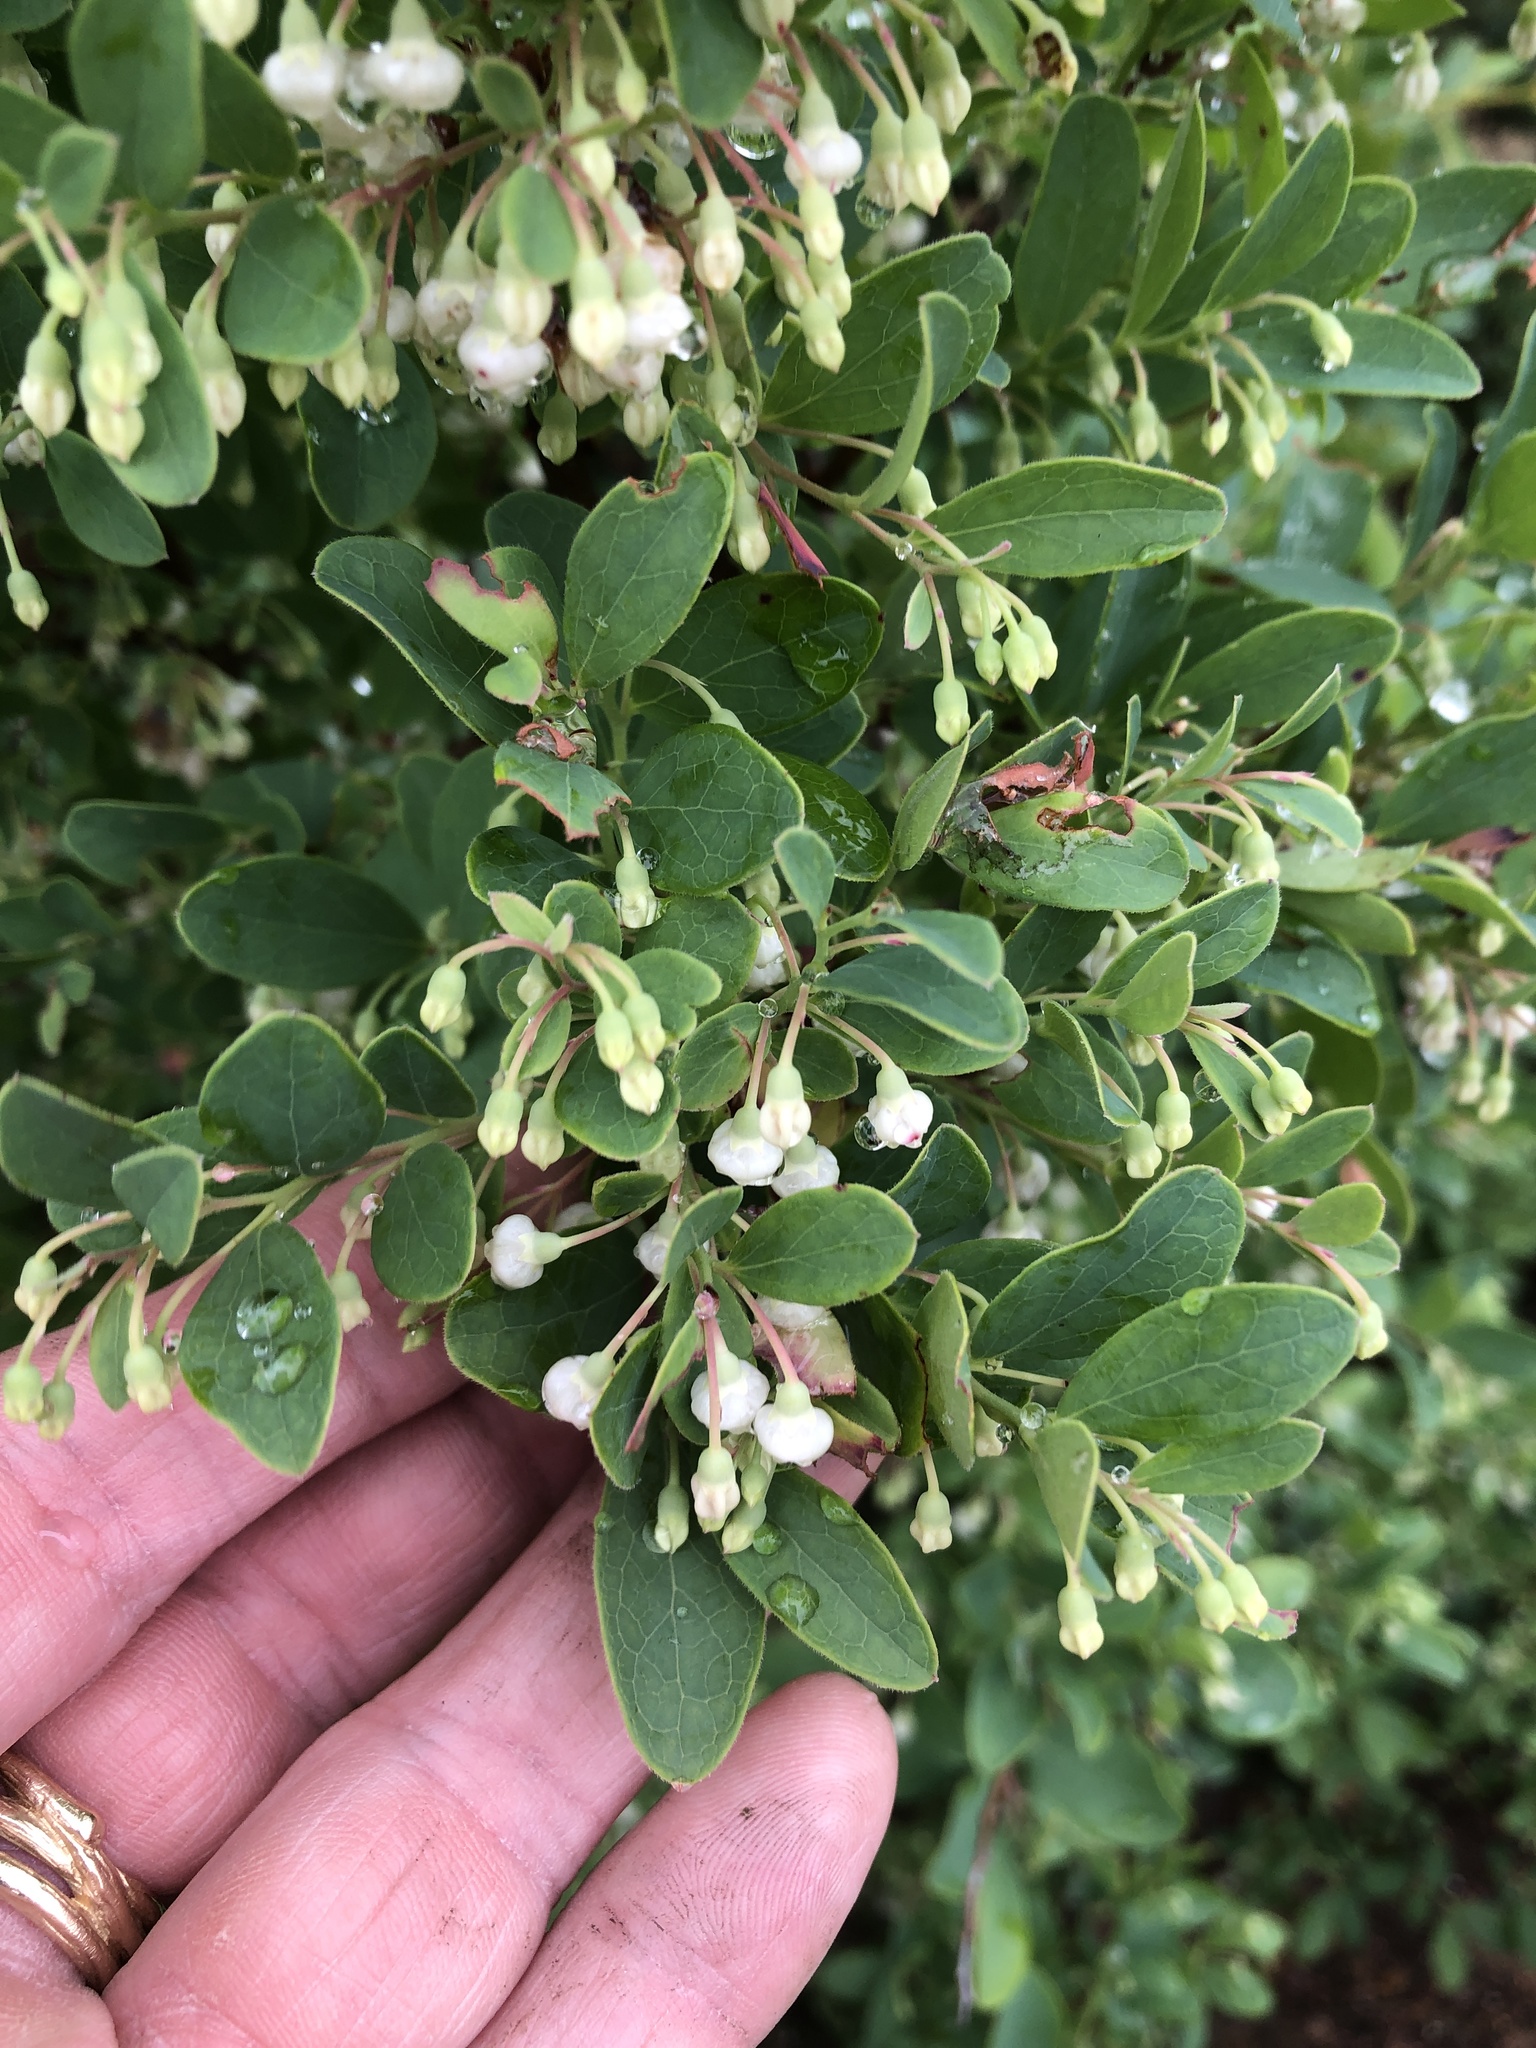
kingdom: Plantae
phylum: Tracheophyta
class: Magnoliopsida
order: Ericales
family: Ericaceae
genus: Vaccinium
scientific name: Vaccinium arboreum
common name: Farkleberry
